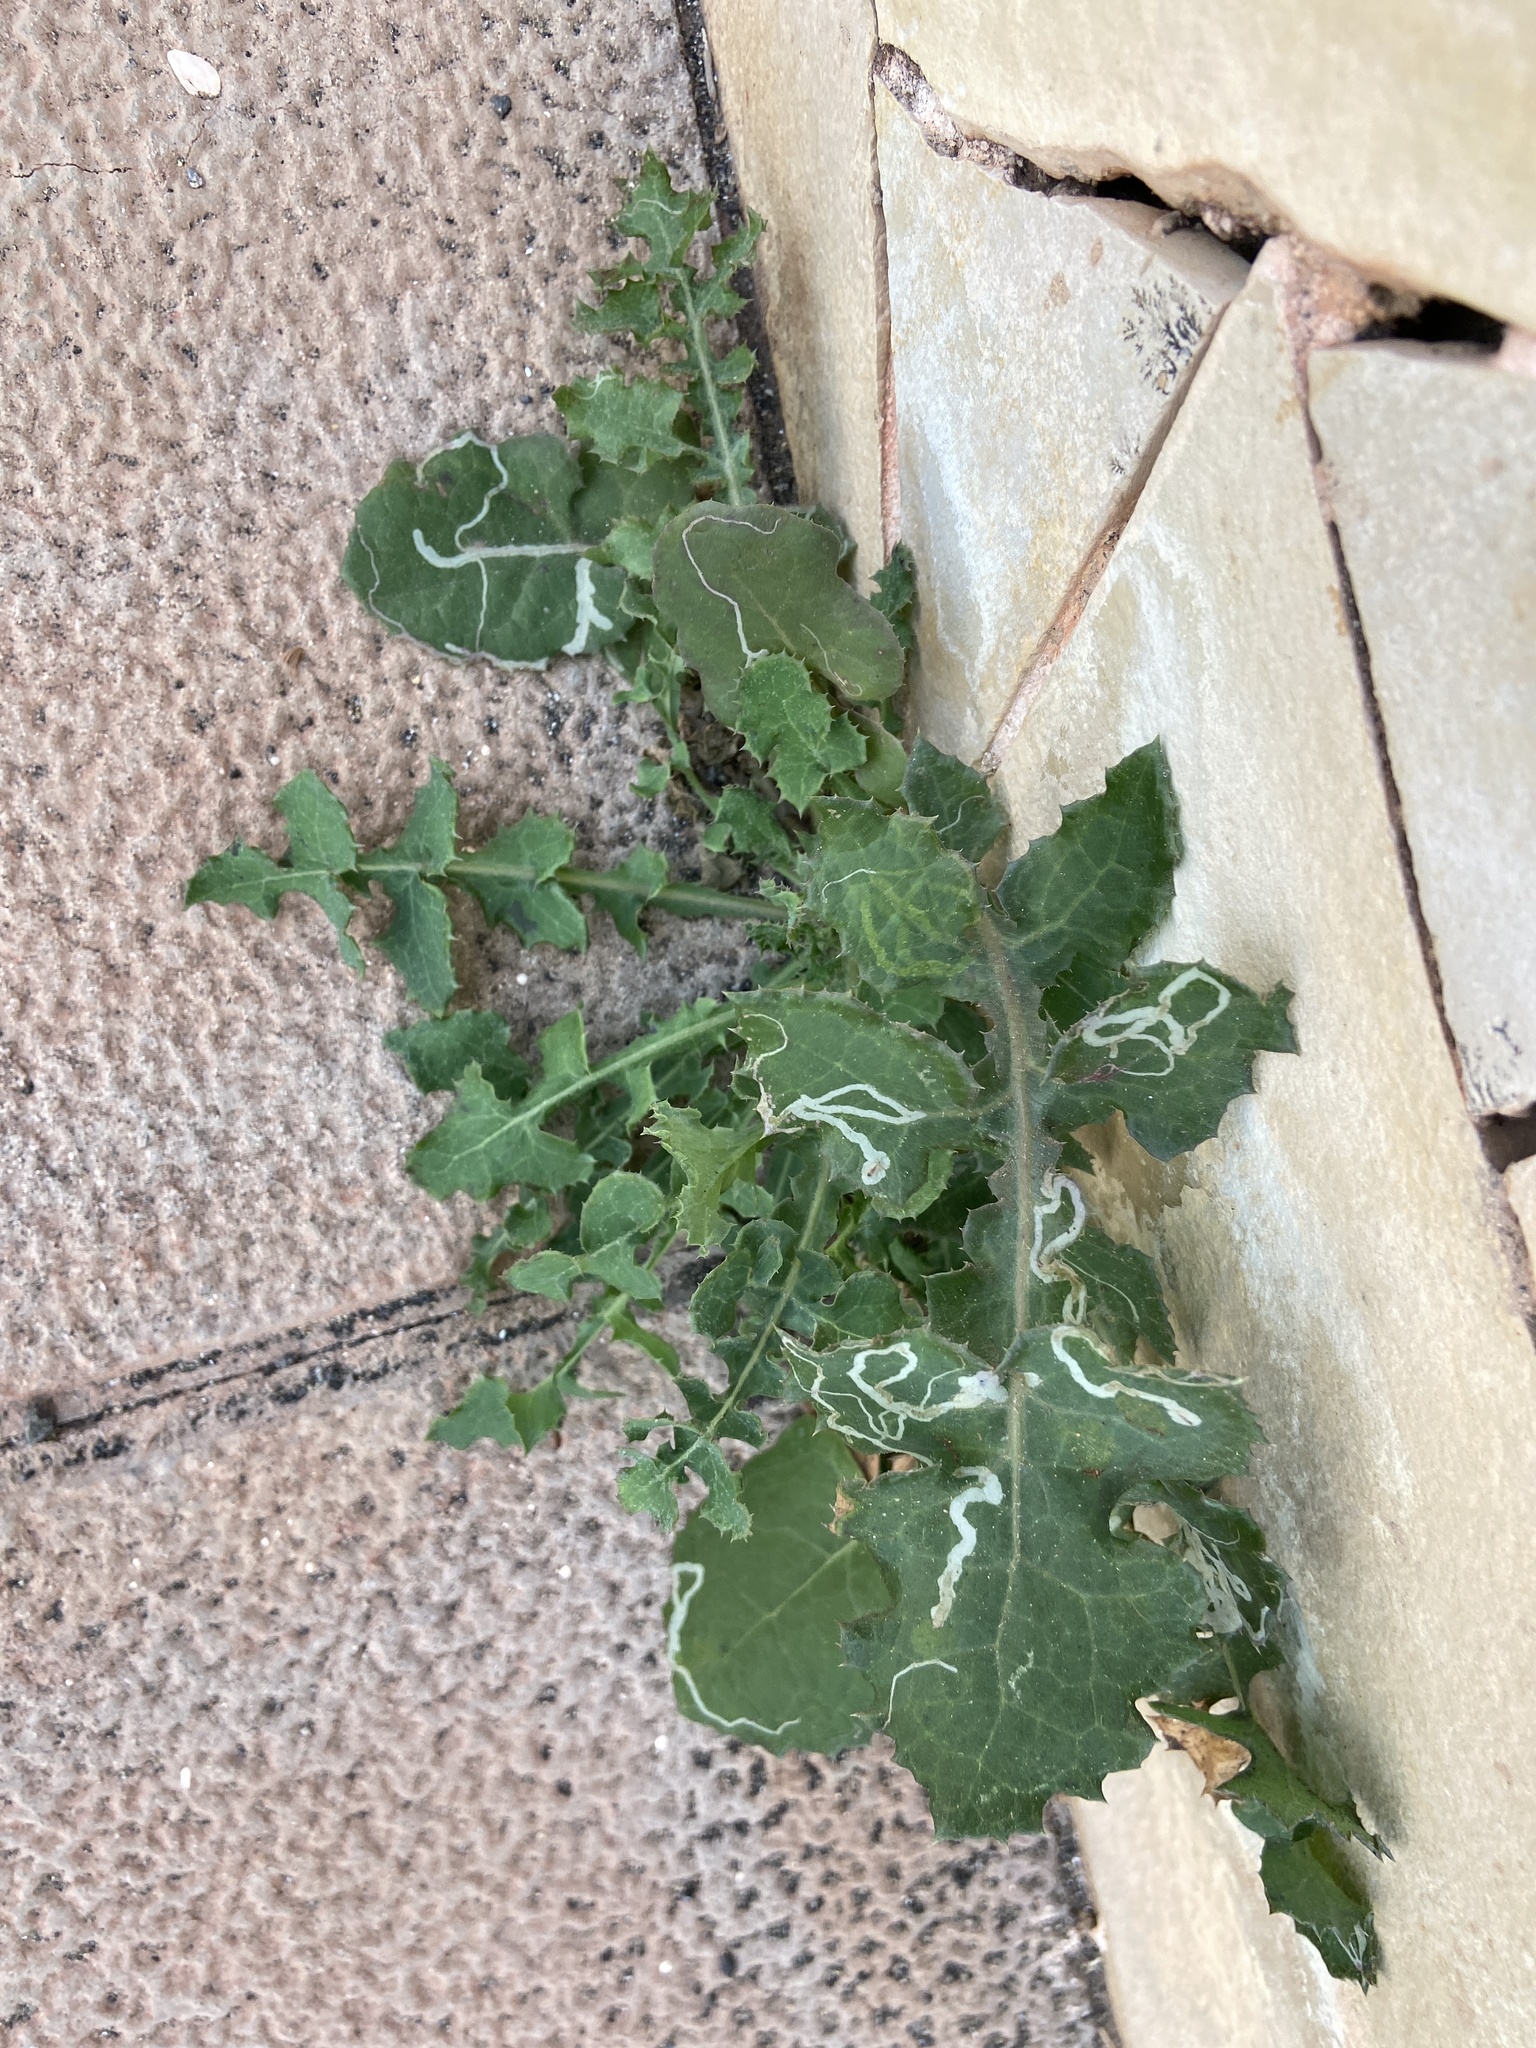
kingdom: Plantae
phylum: Tracheophyta
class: Magnoliopsida
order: Asterales
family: Asteraceae
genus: Sonchus
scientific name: Sonchus oleraceus
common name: Common sowthistle
